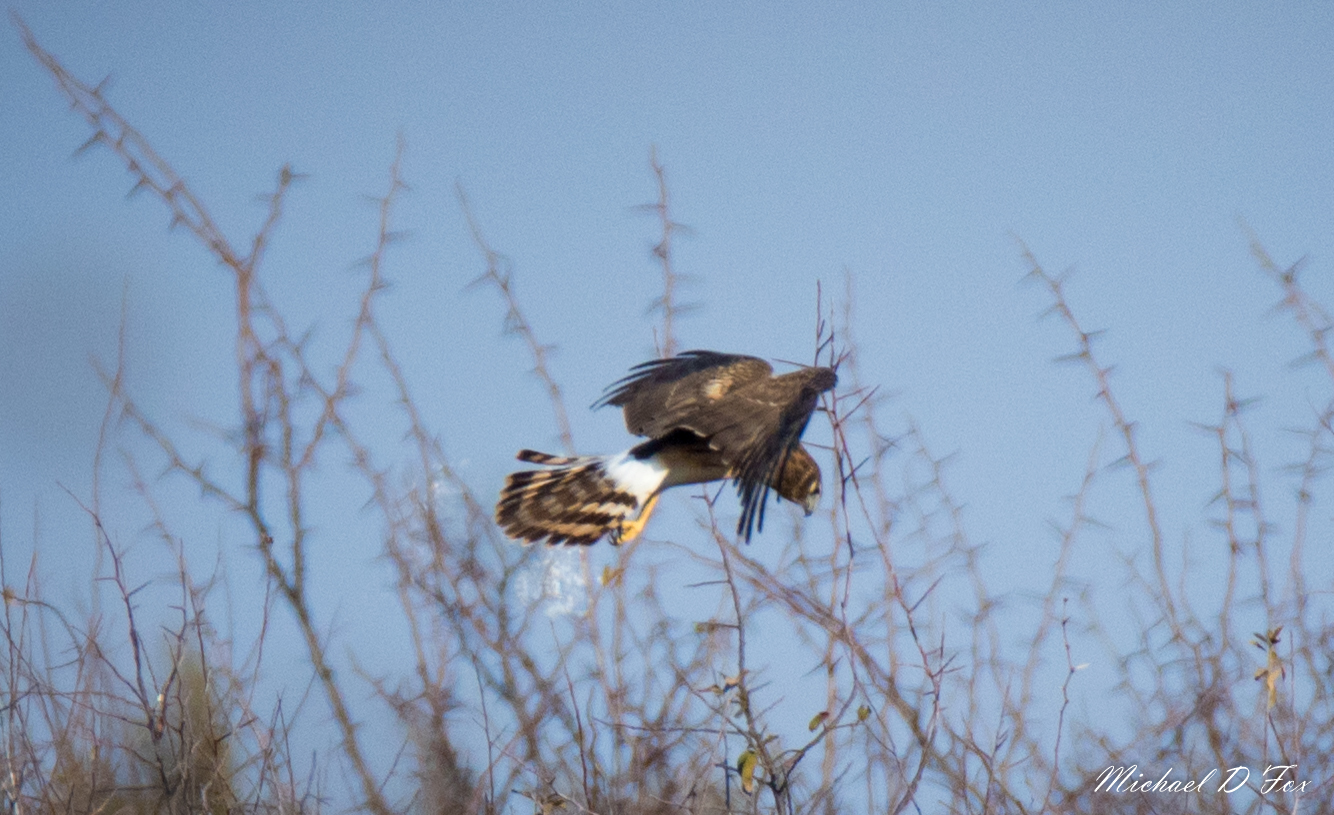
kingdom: Animalia
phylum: Chordata
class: Aves
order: Accipitriformes
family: Accipitridae
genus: Circus
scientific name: Circus cyaneus
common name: Hen harrier
